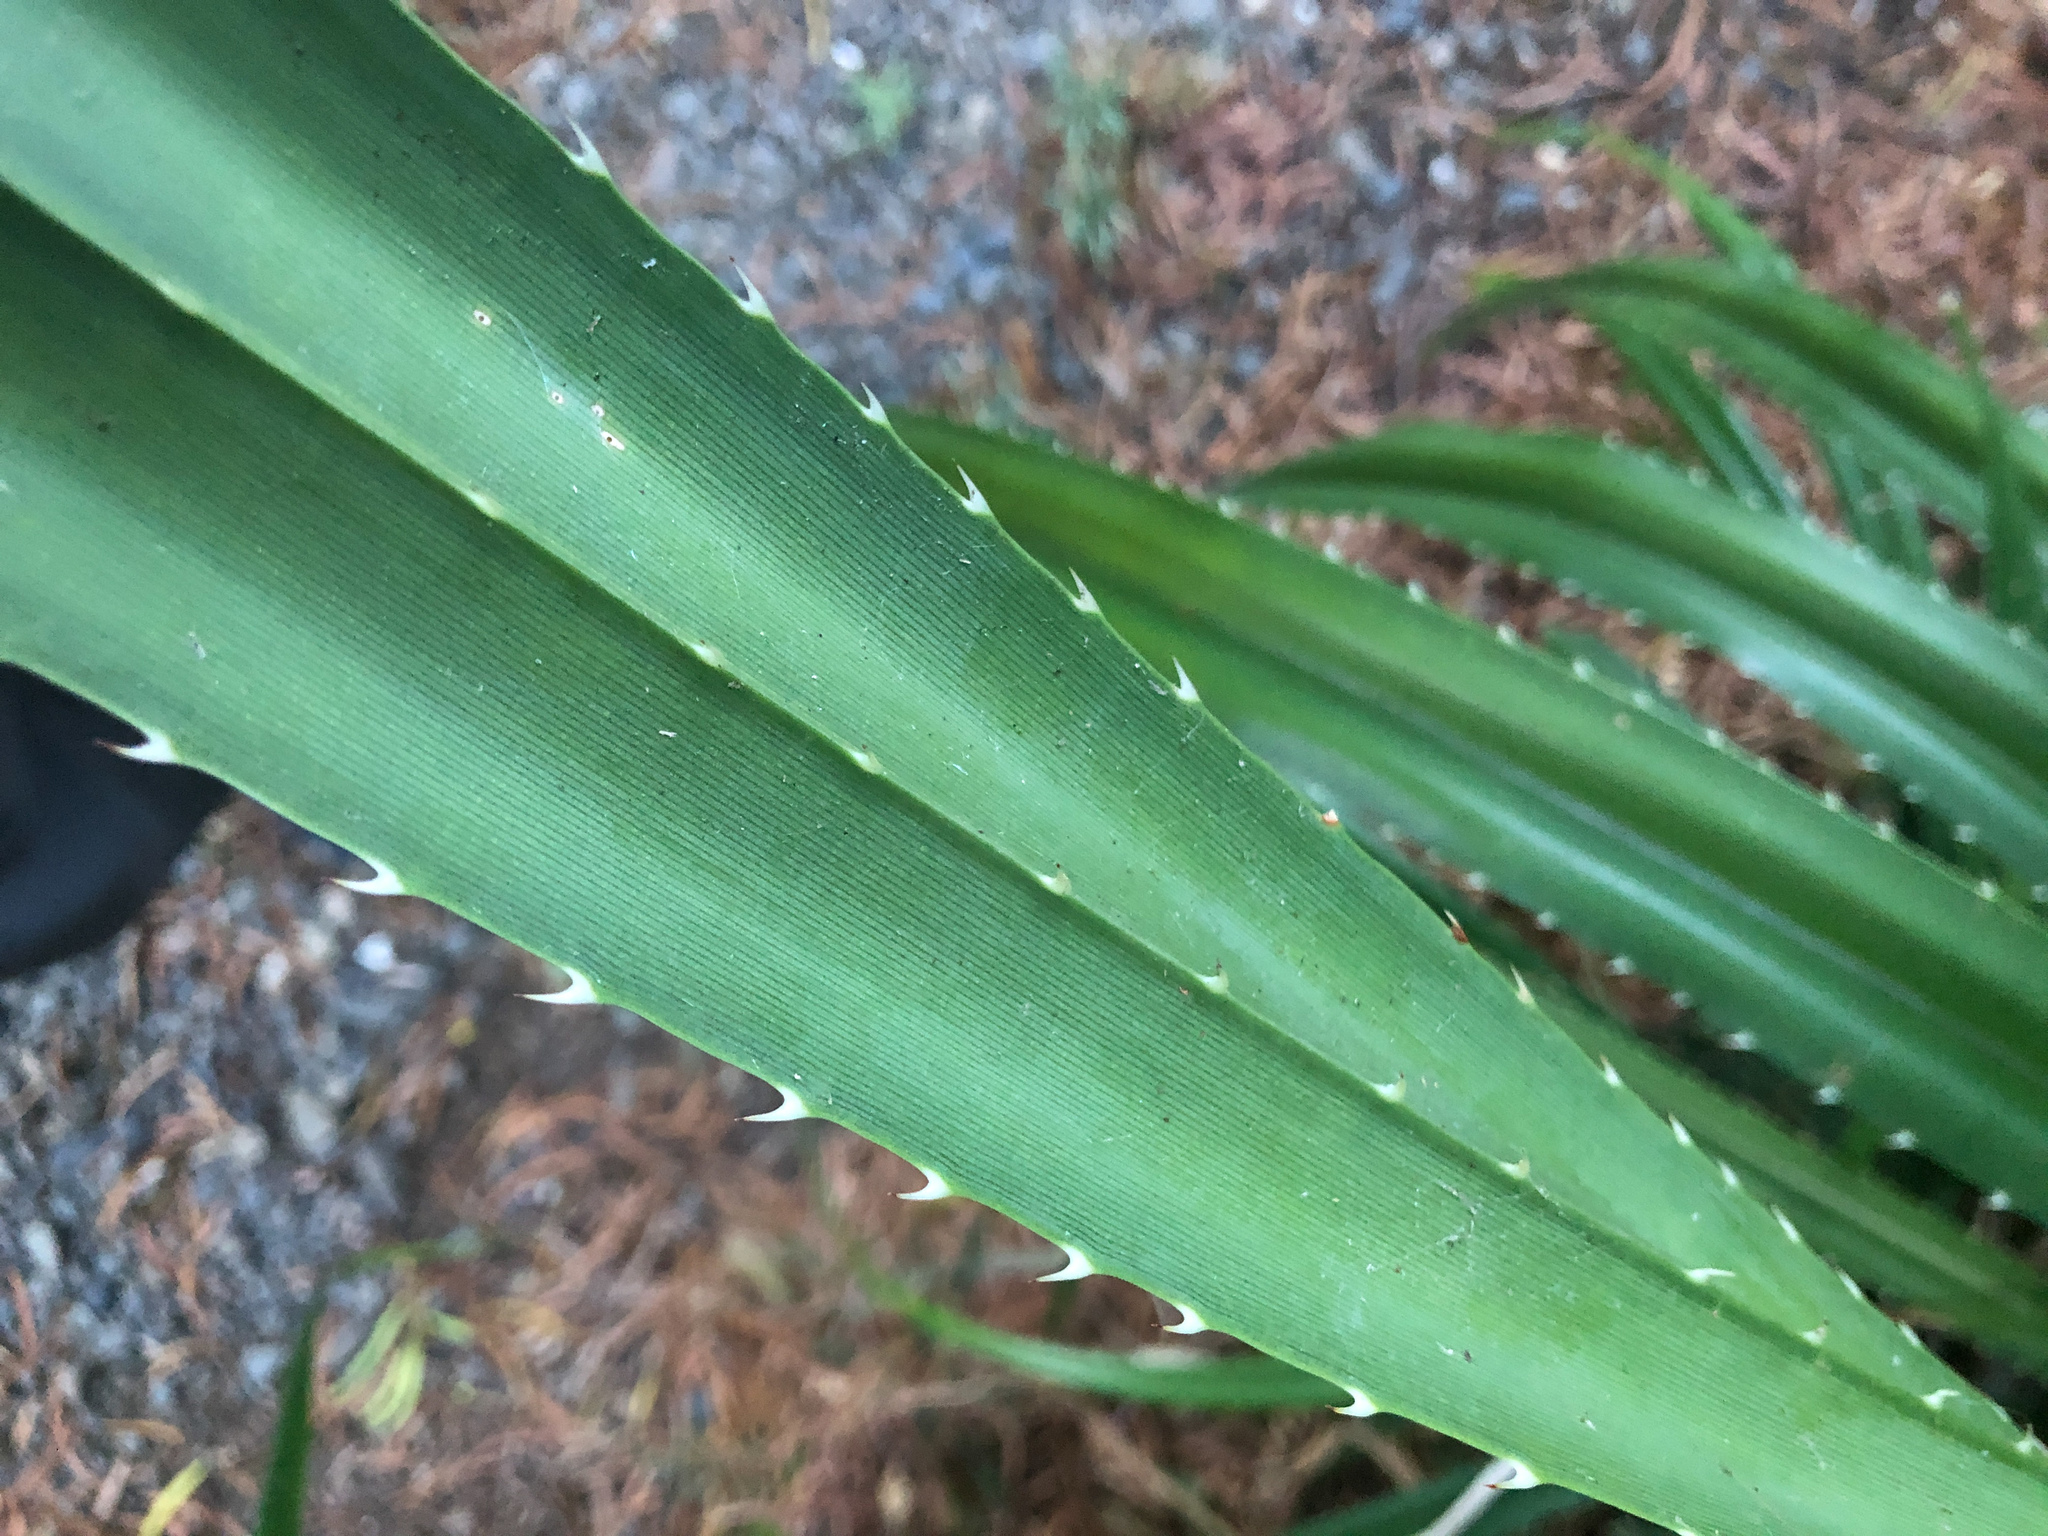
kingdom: Plantae
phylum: Tracheophyta
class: Liliopsida
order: Pandanales
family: Pandanaceae
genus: Pandanus
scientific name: Pandanus odorifer
